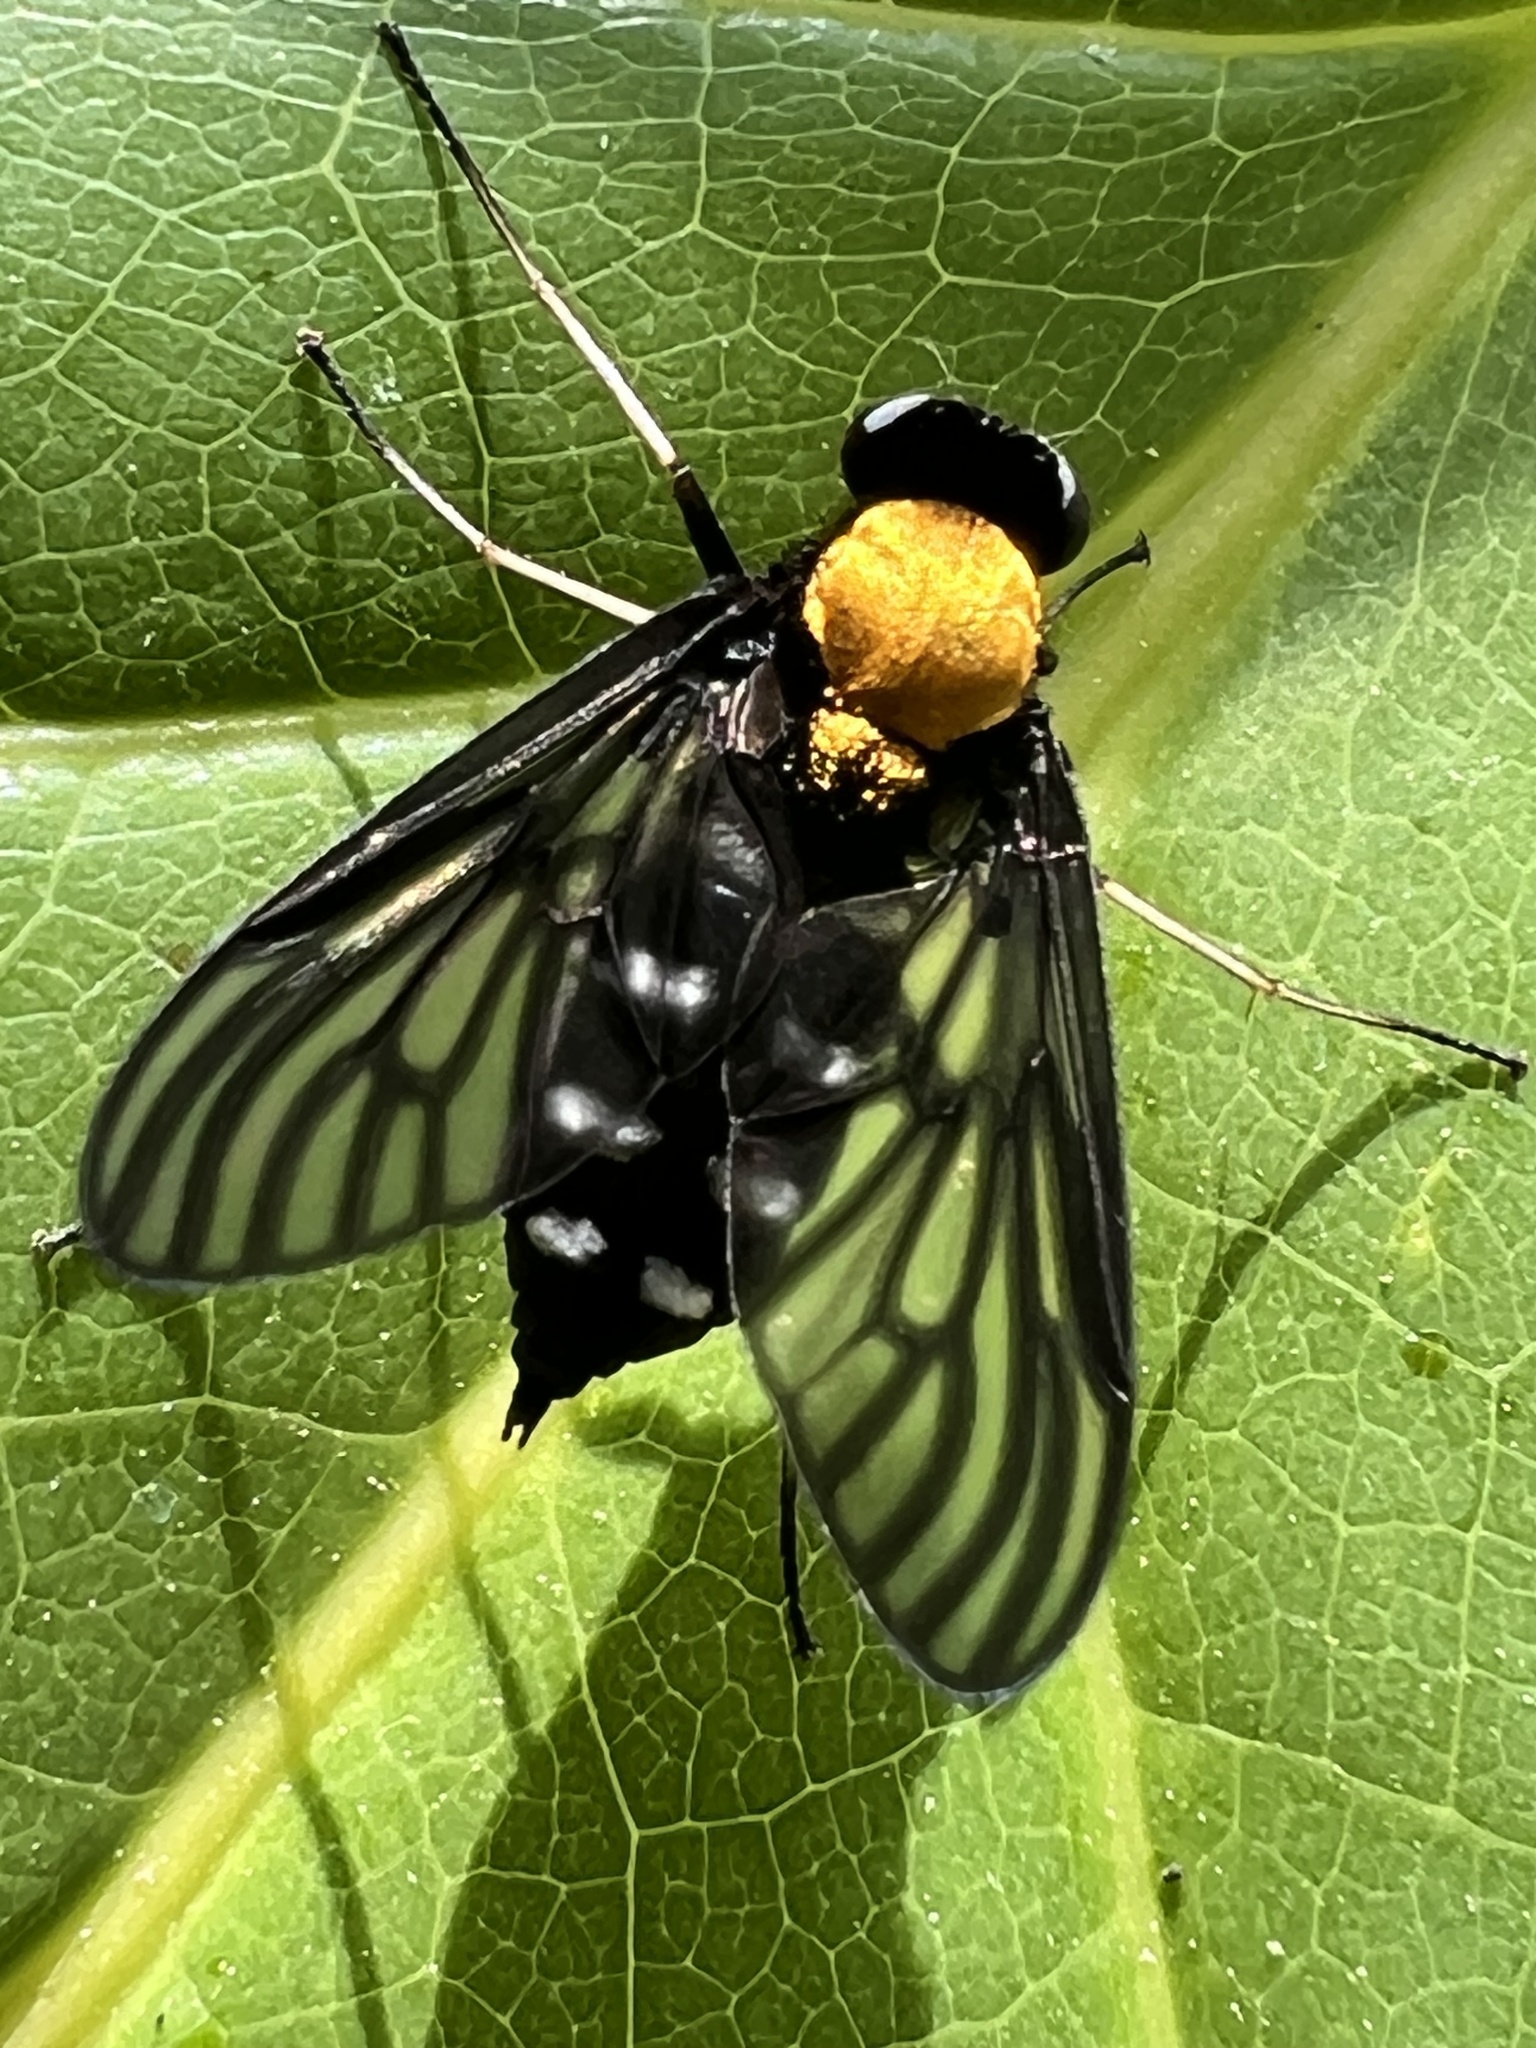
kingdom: Animalia
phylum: Arthropoda
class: Insecta
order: Diptera
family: Rhagionidae
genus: Chrysopilus
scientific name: Chrysopilus thoracicus
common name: Golden-backed snipe fly
